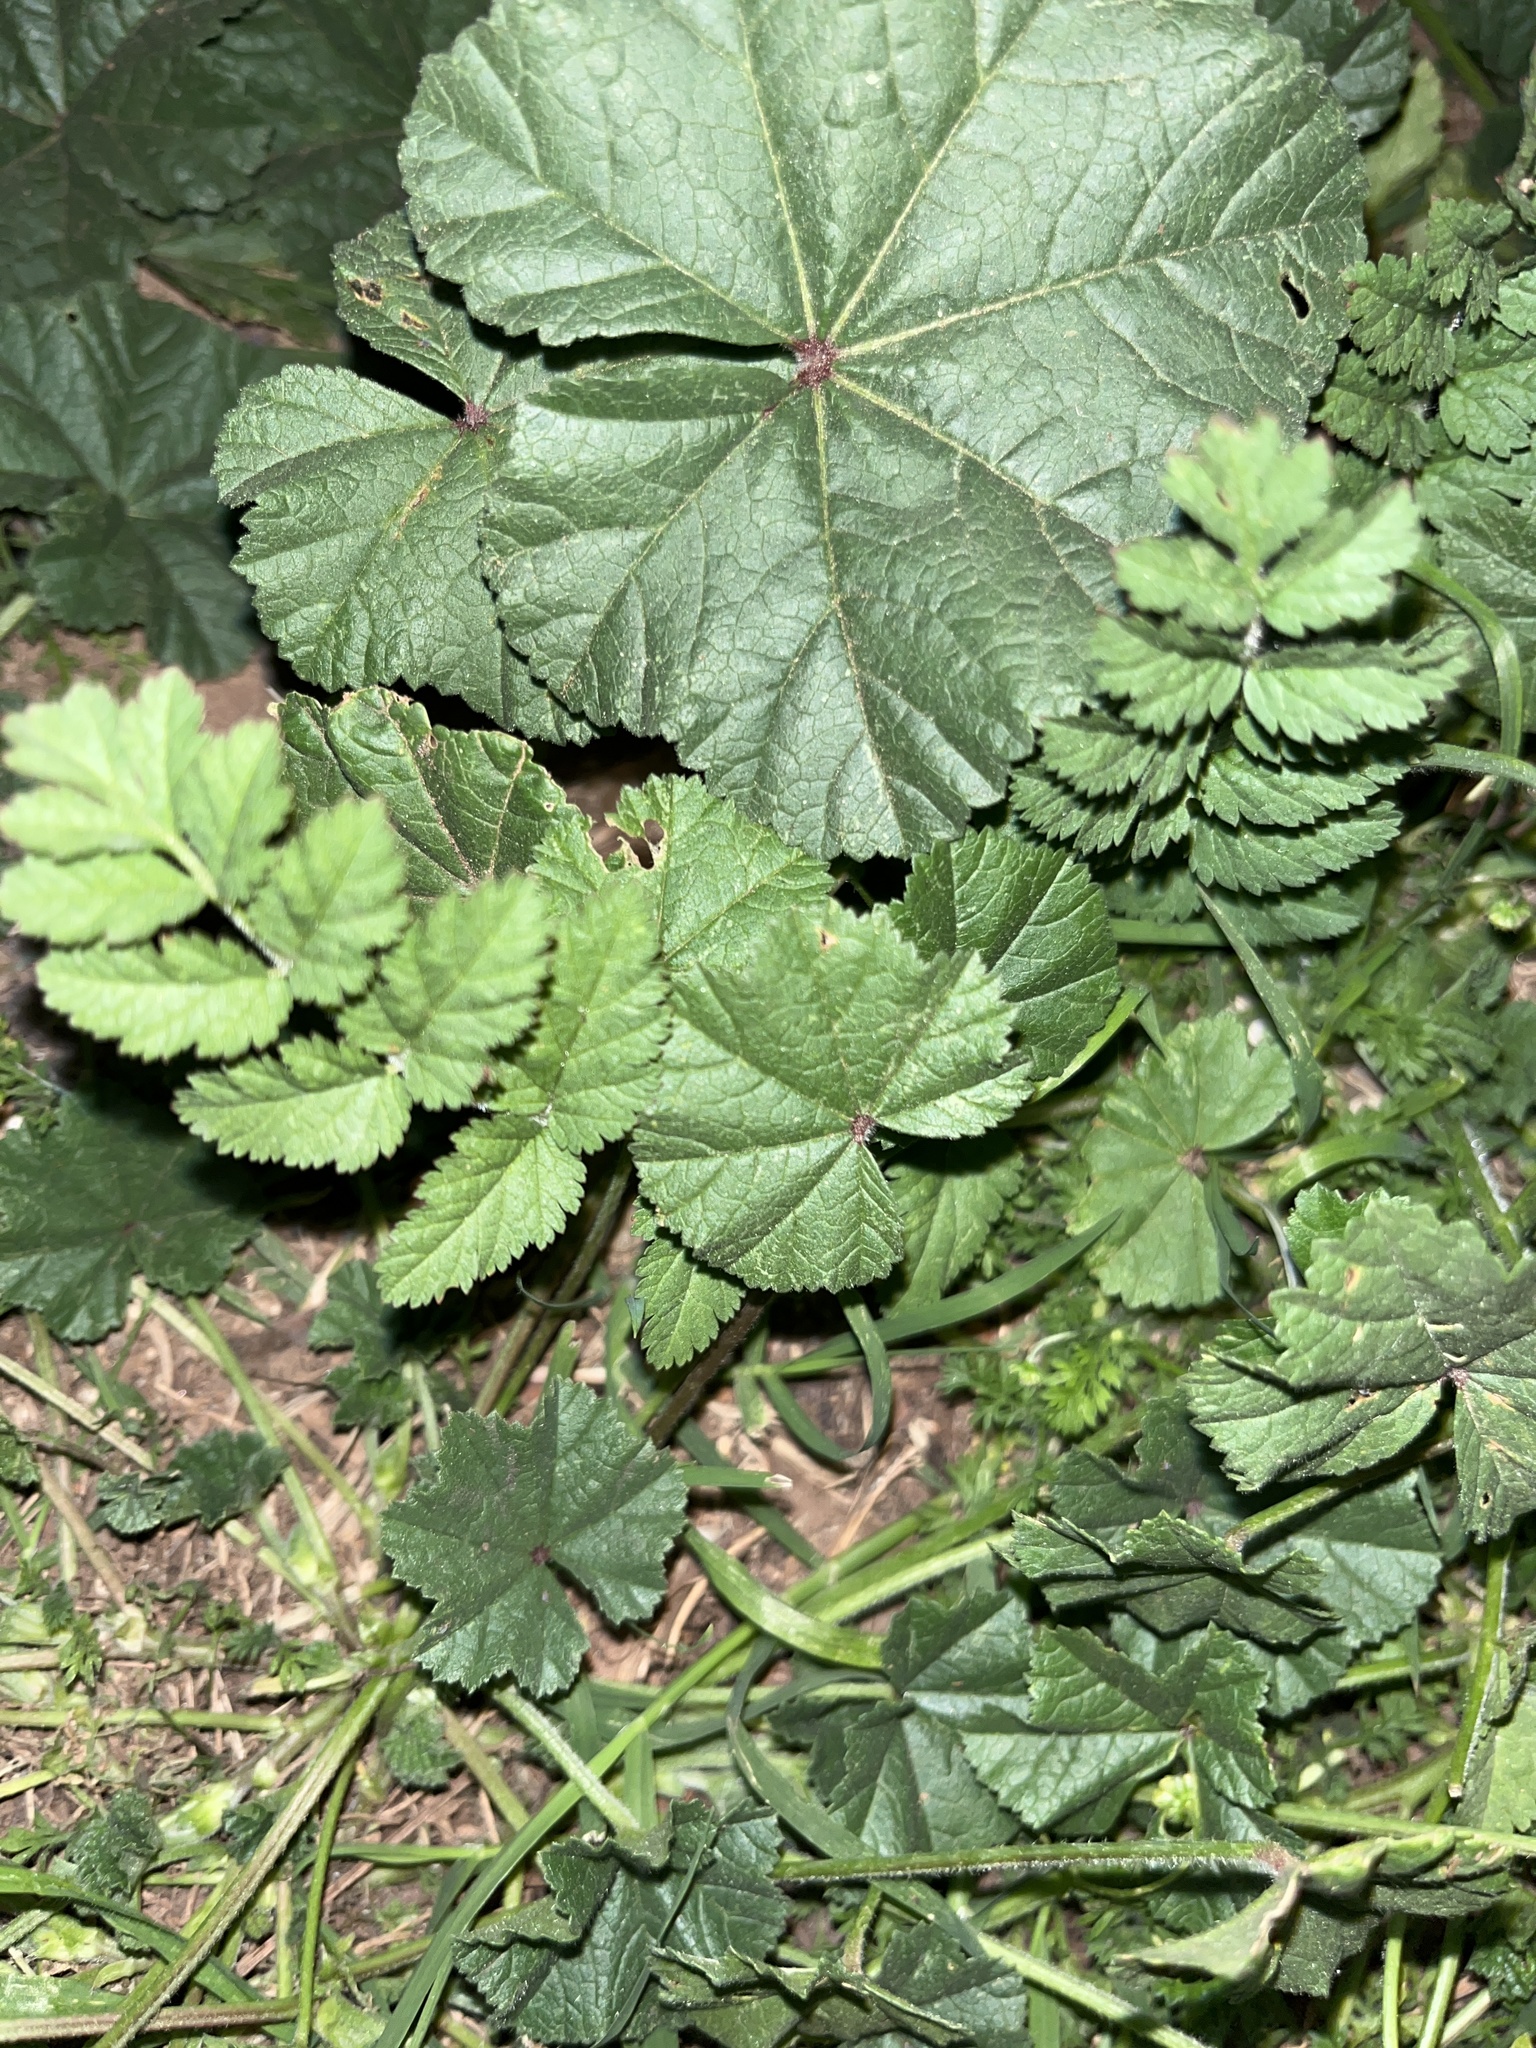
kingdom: Plantae
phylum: Tracheophyta
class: Magnoliopsida
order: Malvales
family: Malvaceae
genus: Malva
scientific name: Malva
